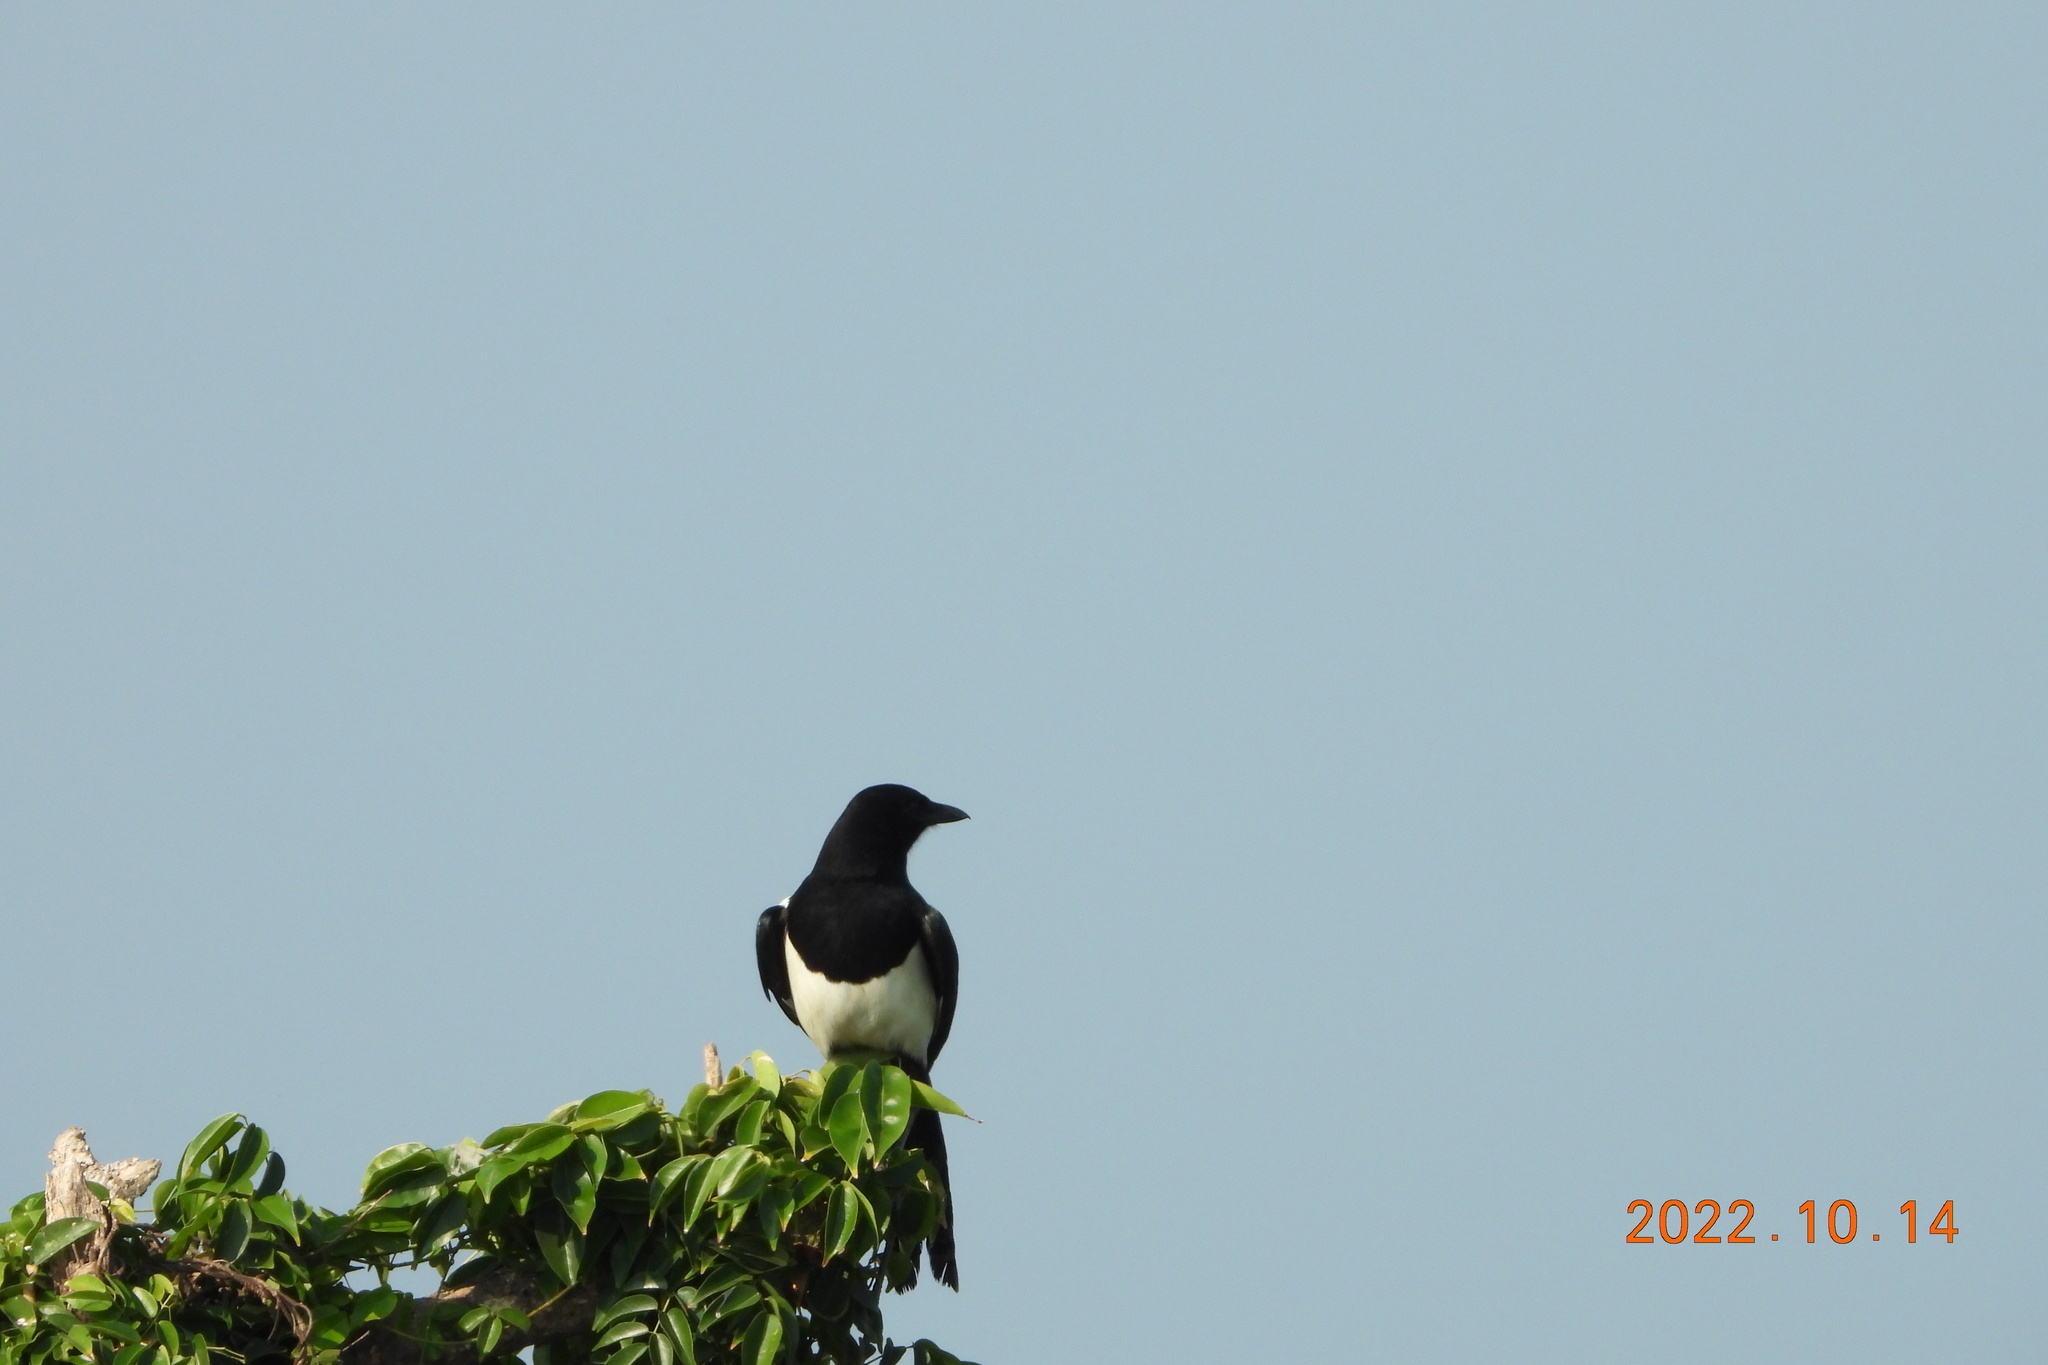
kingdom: Animalia
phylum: Chordata
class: Aves
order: Passeriformes
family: Corvidae
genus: Pica
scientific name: Pica serica
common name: Oriental magpie
